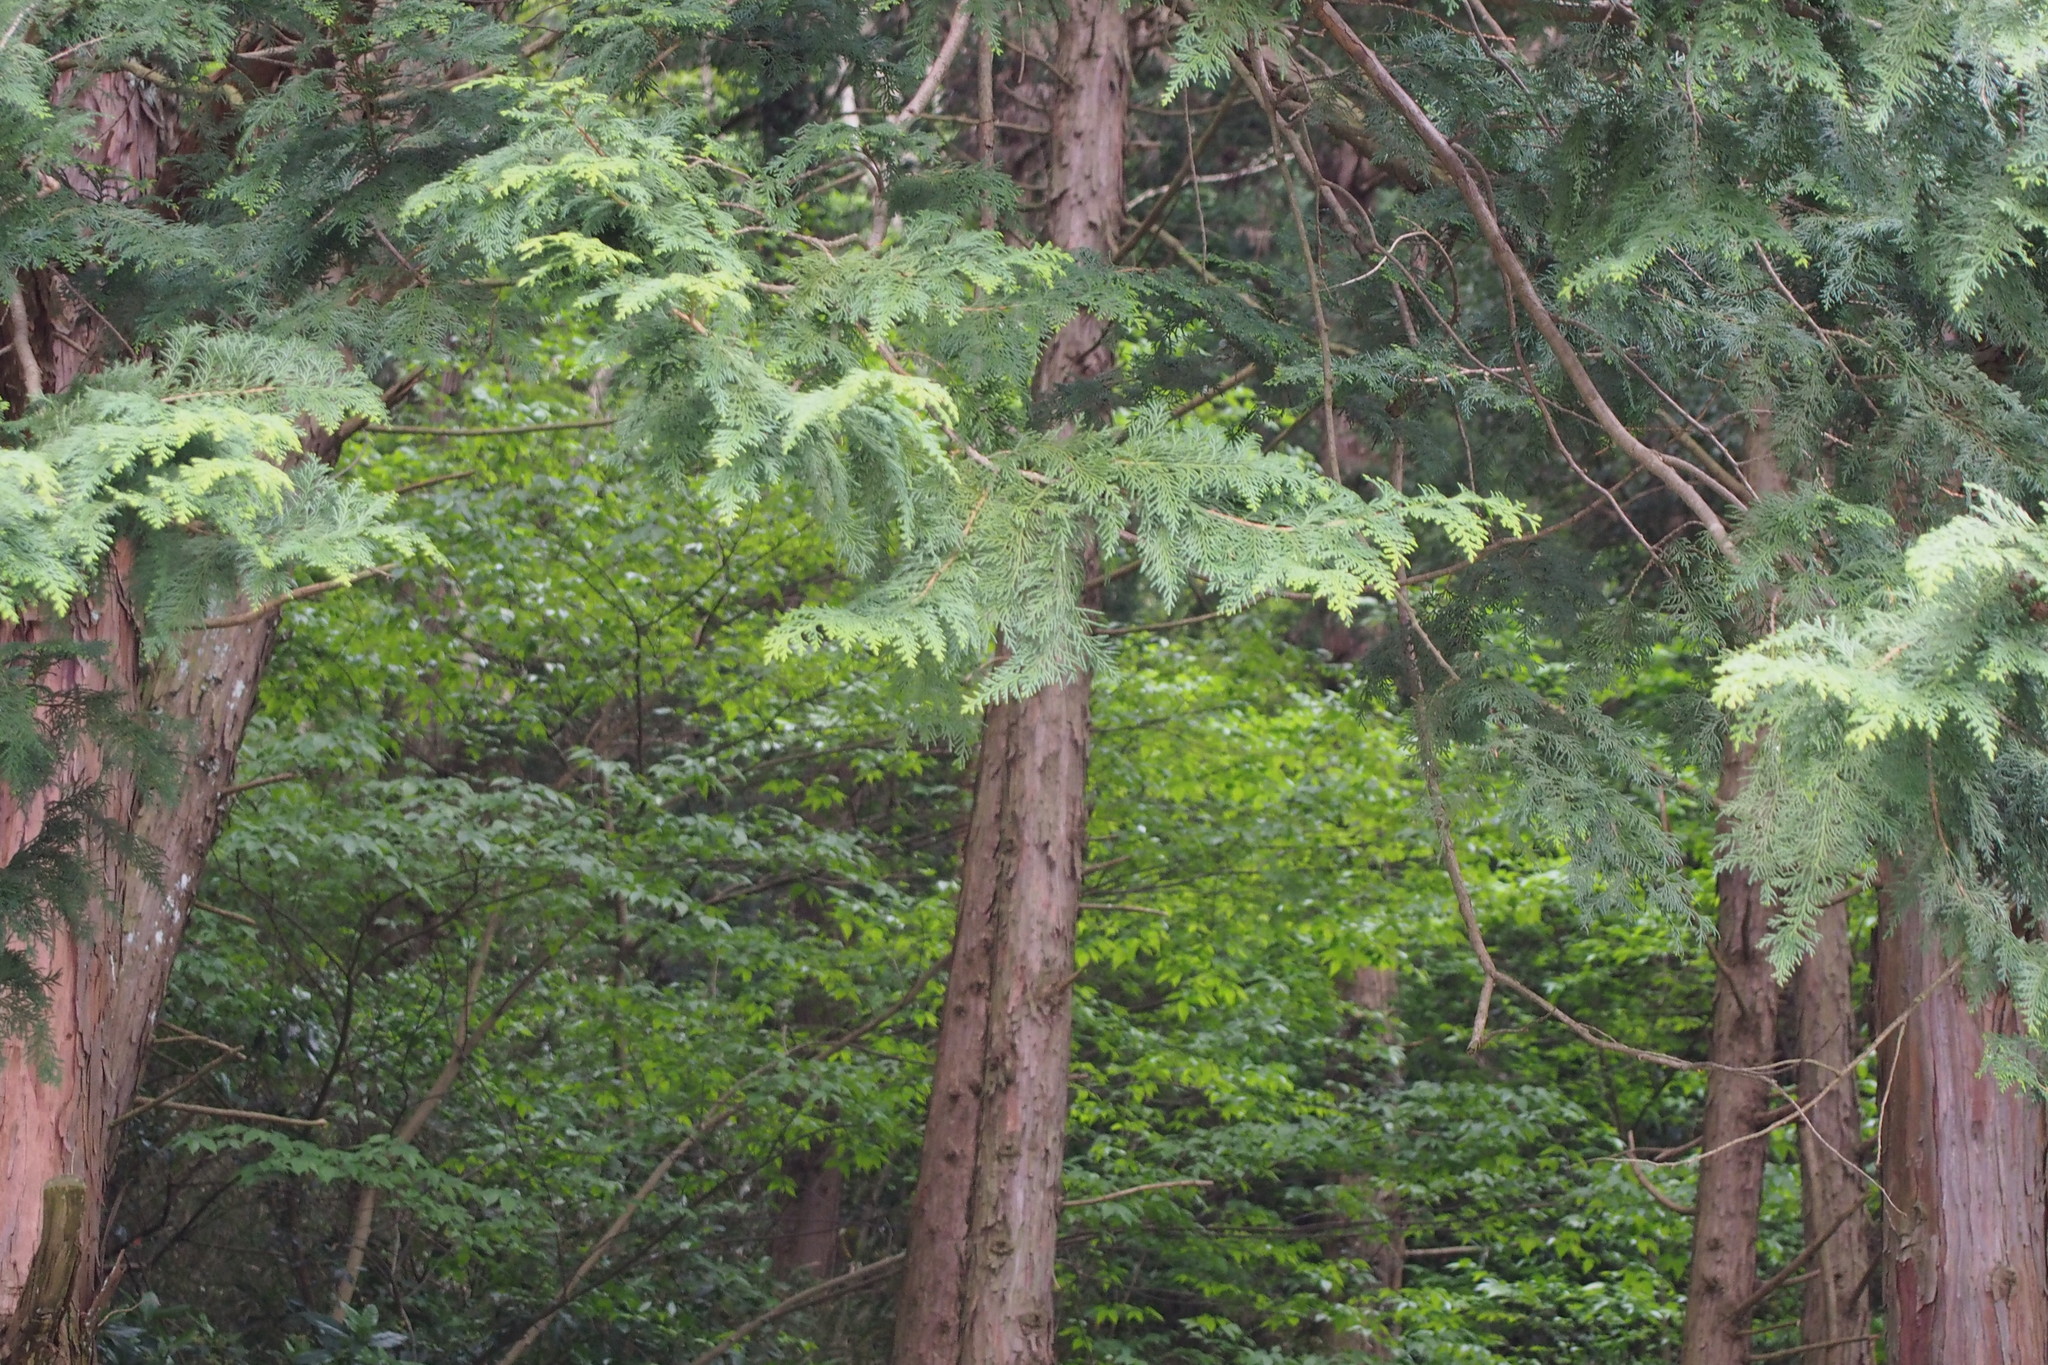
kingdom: Plantae
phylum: Tracheophyta
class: Pinopsida
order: Pinales
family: Cupressaceae
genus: Chamaecyparis
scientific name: Chamaecyparis obtusa
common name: Hinoki false cypress
